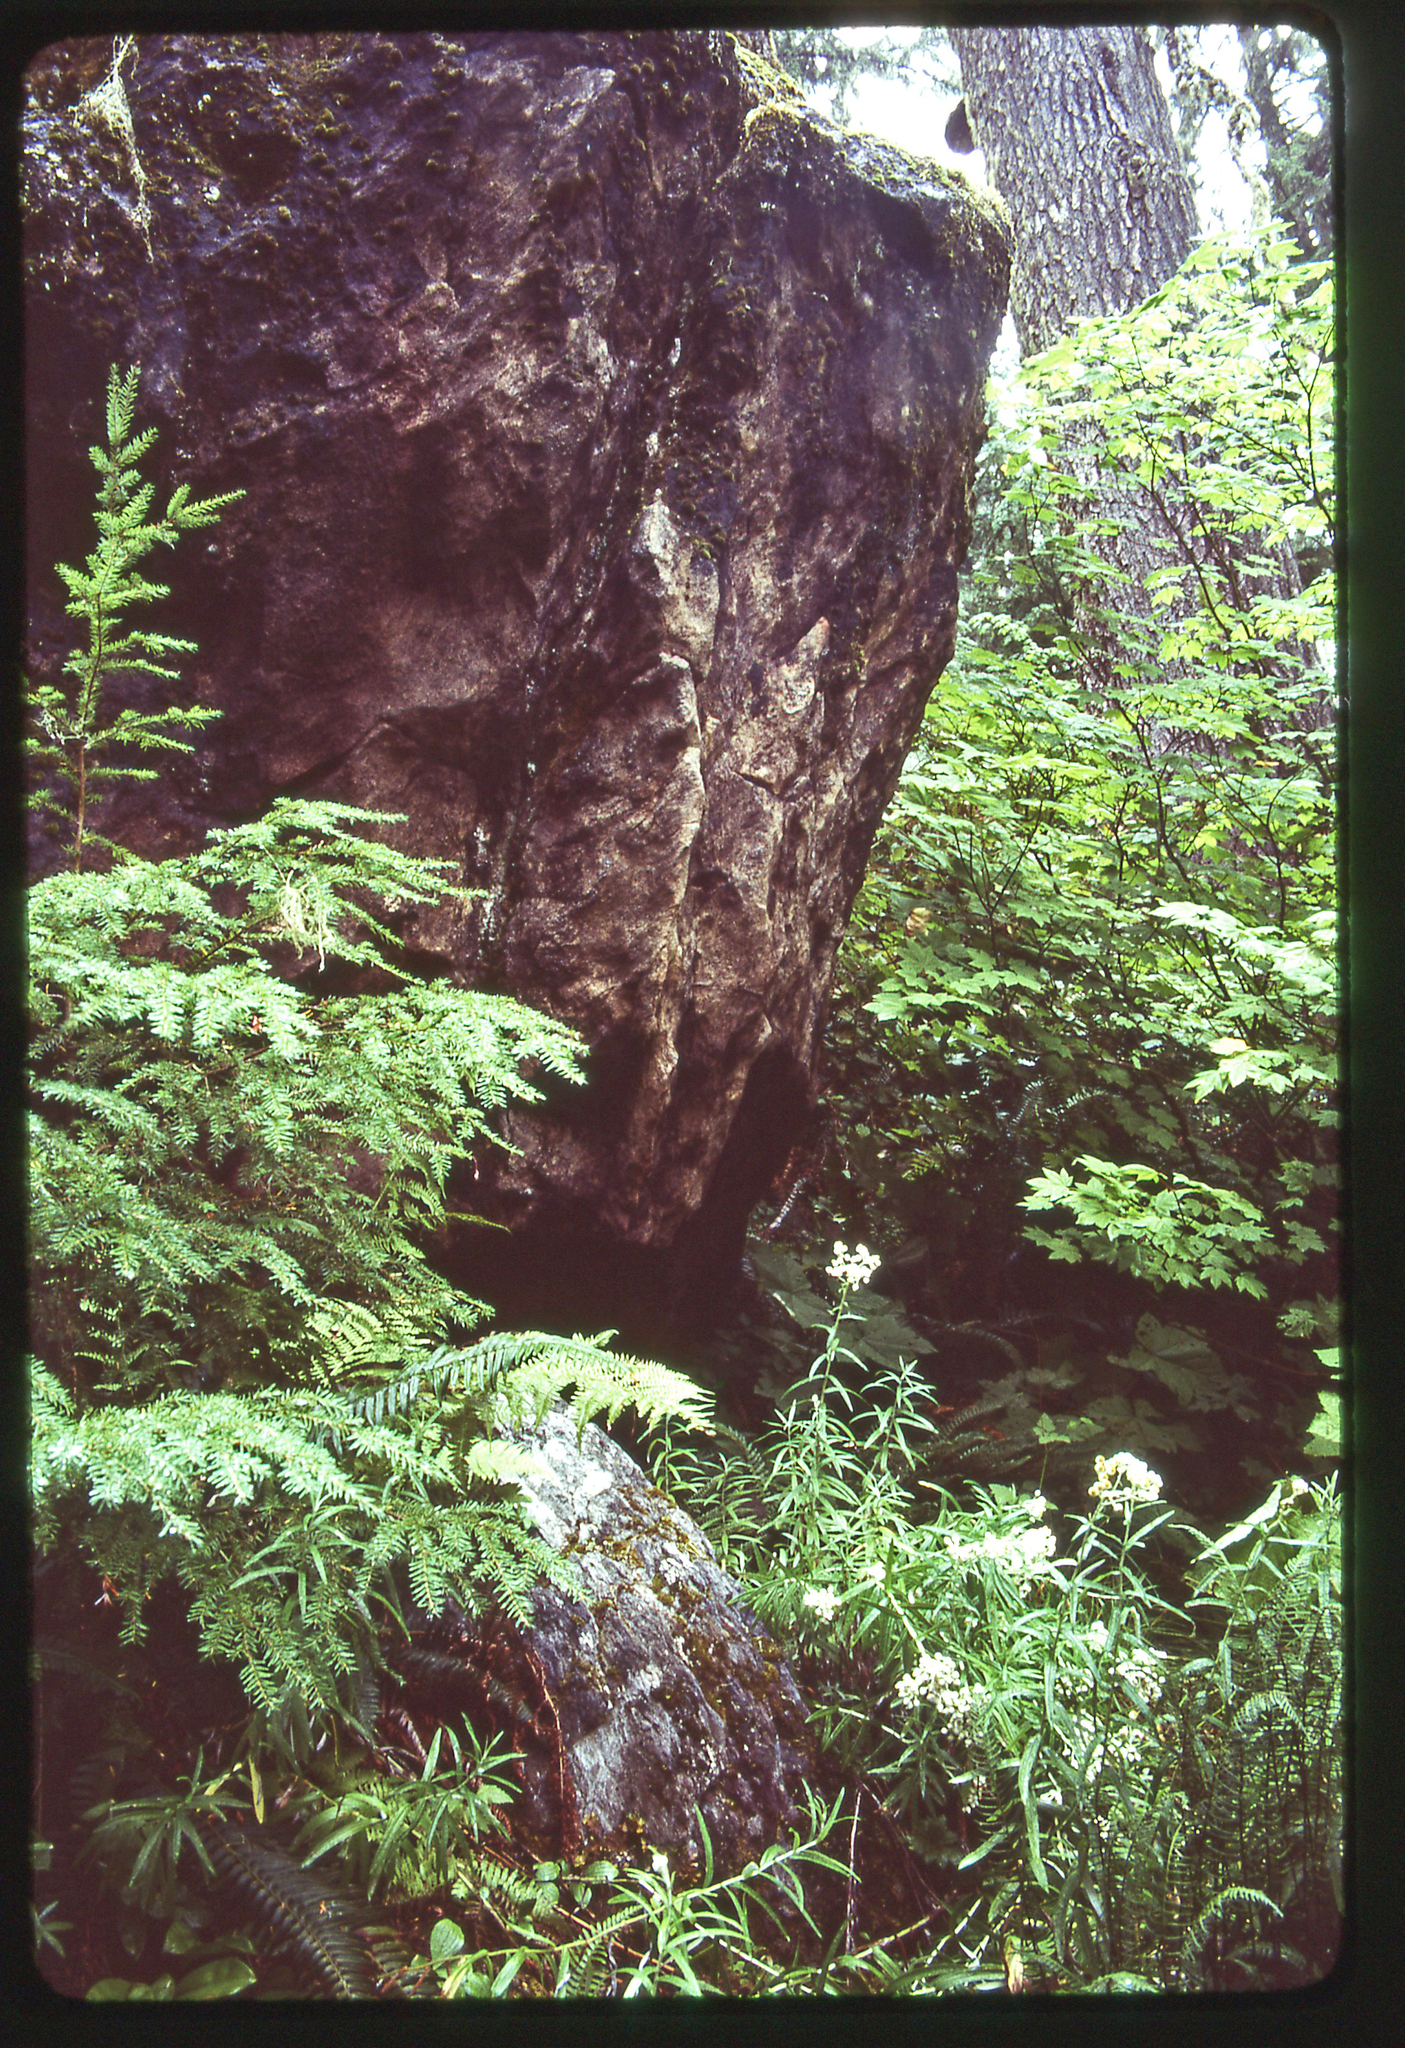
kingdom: Plantae
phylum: Tracheophyta
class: Polypodiopsida
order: Polypodiales
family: Dryopteridaceae
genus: Polystichum
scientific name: Polystichum
